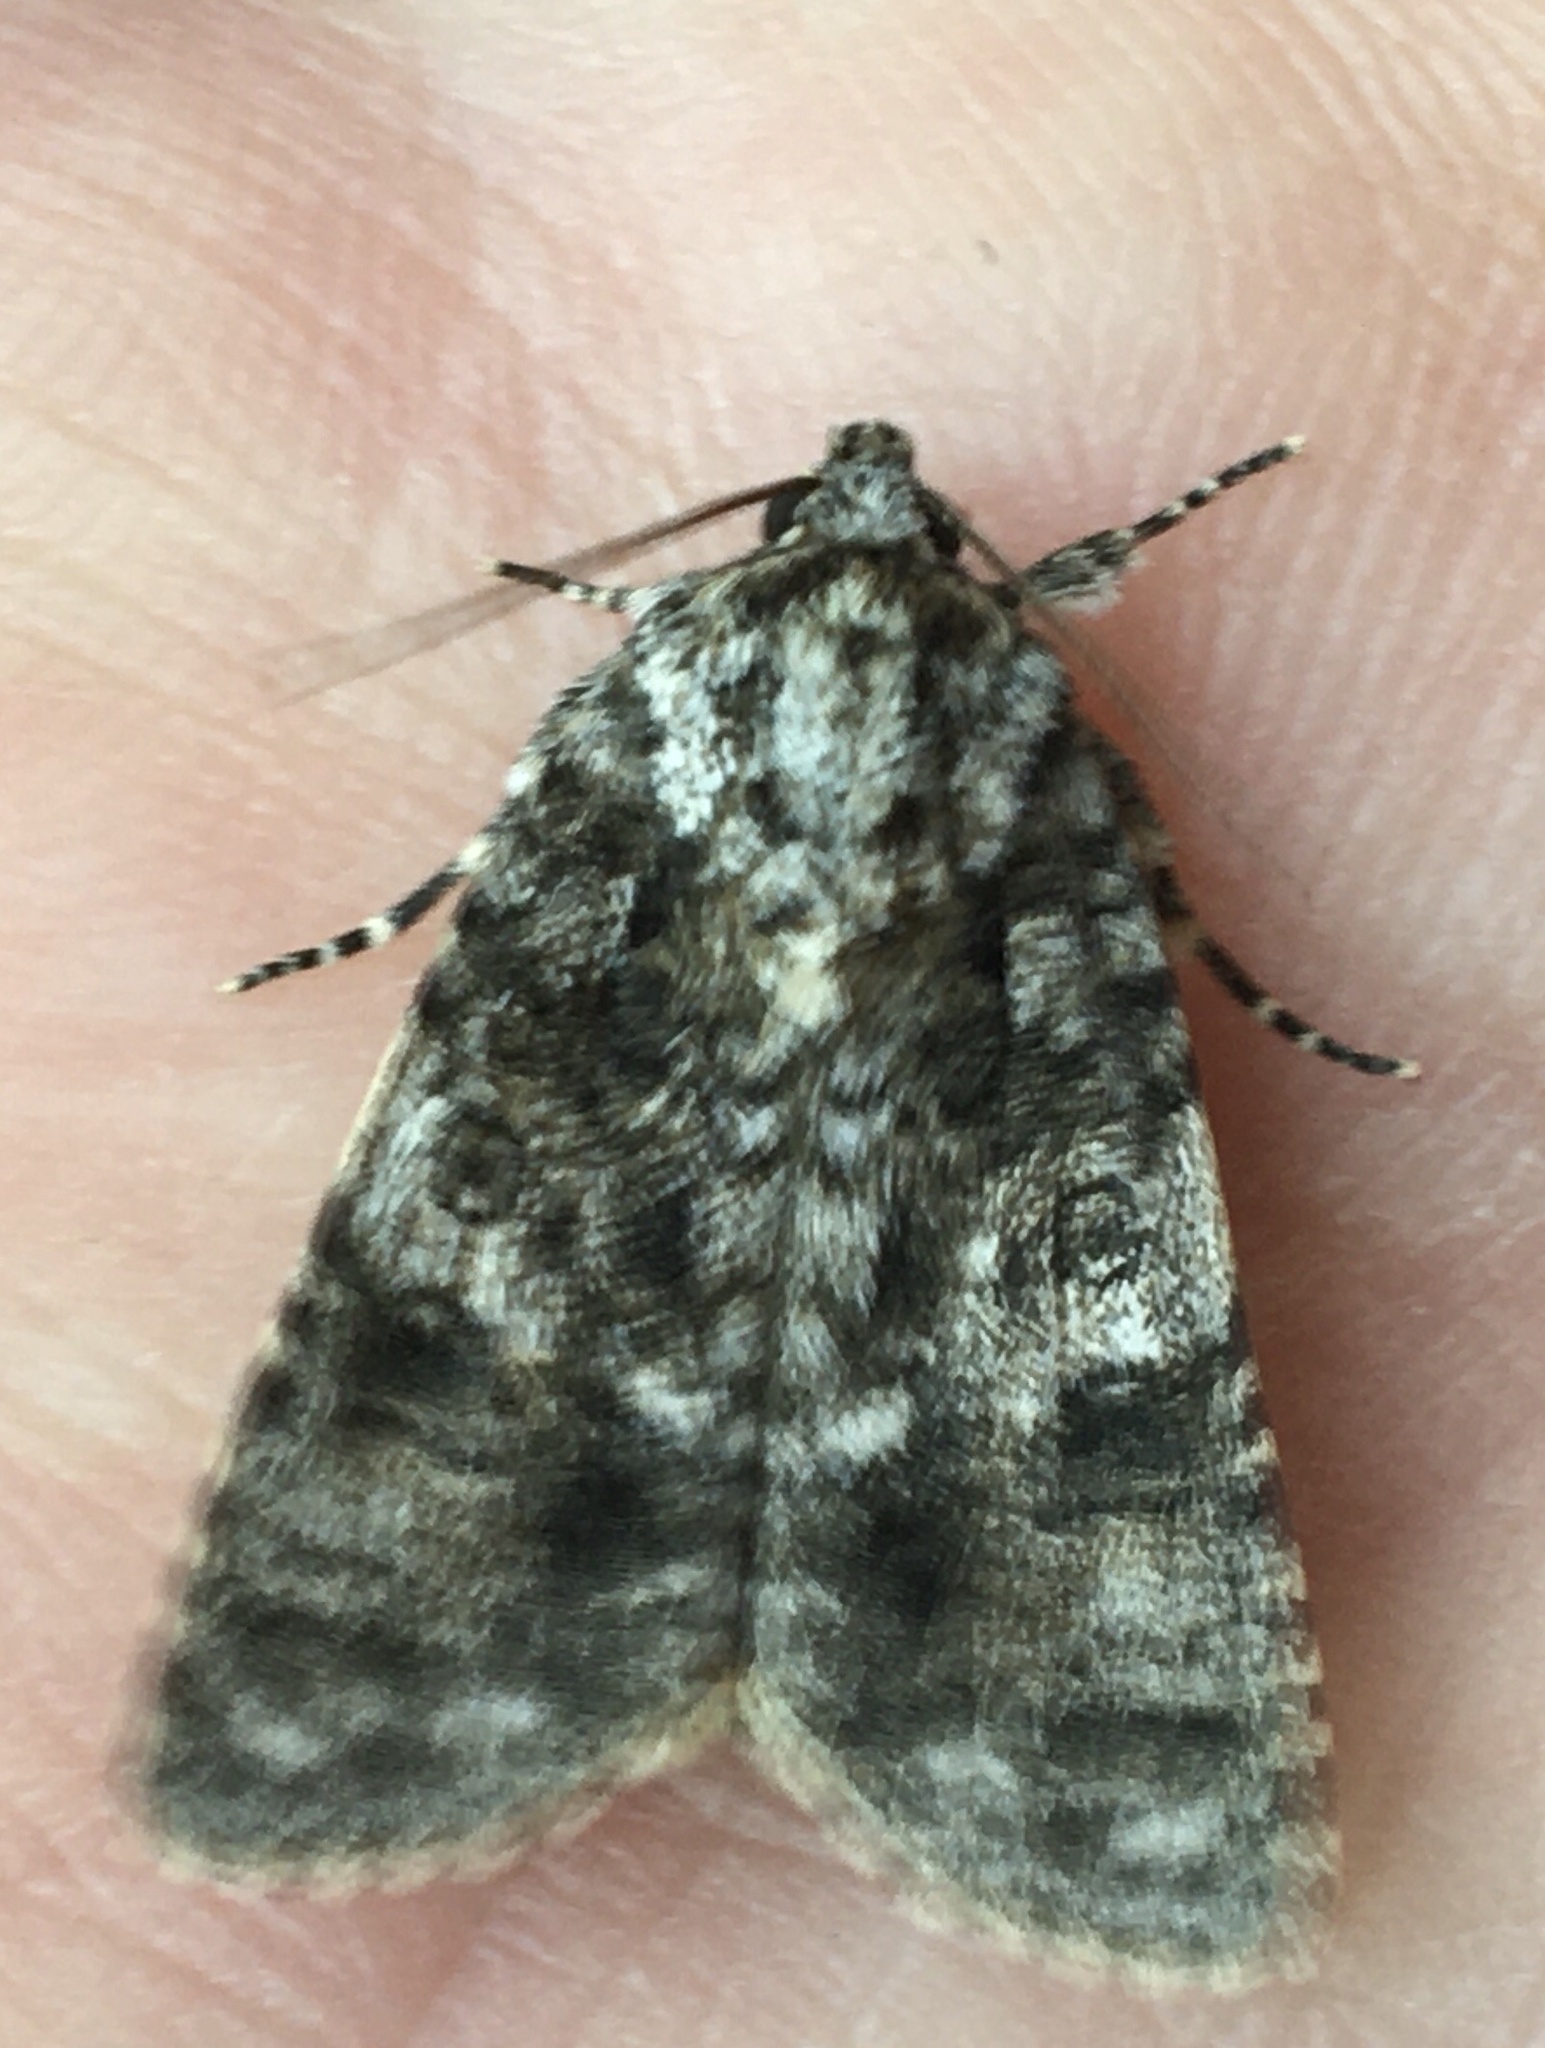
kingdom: Animalia
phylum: Arthropoda
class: Insecta
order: Lepidoptera
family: Noctuidae
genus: Acronicta
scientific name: Acronicta rumicis
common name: Knot grass
